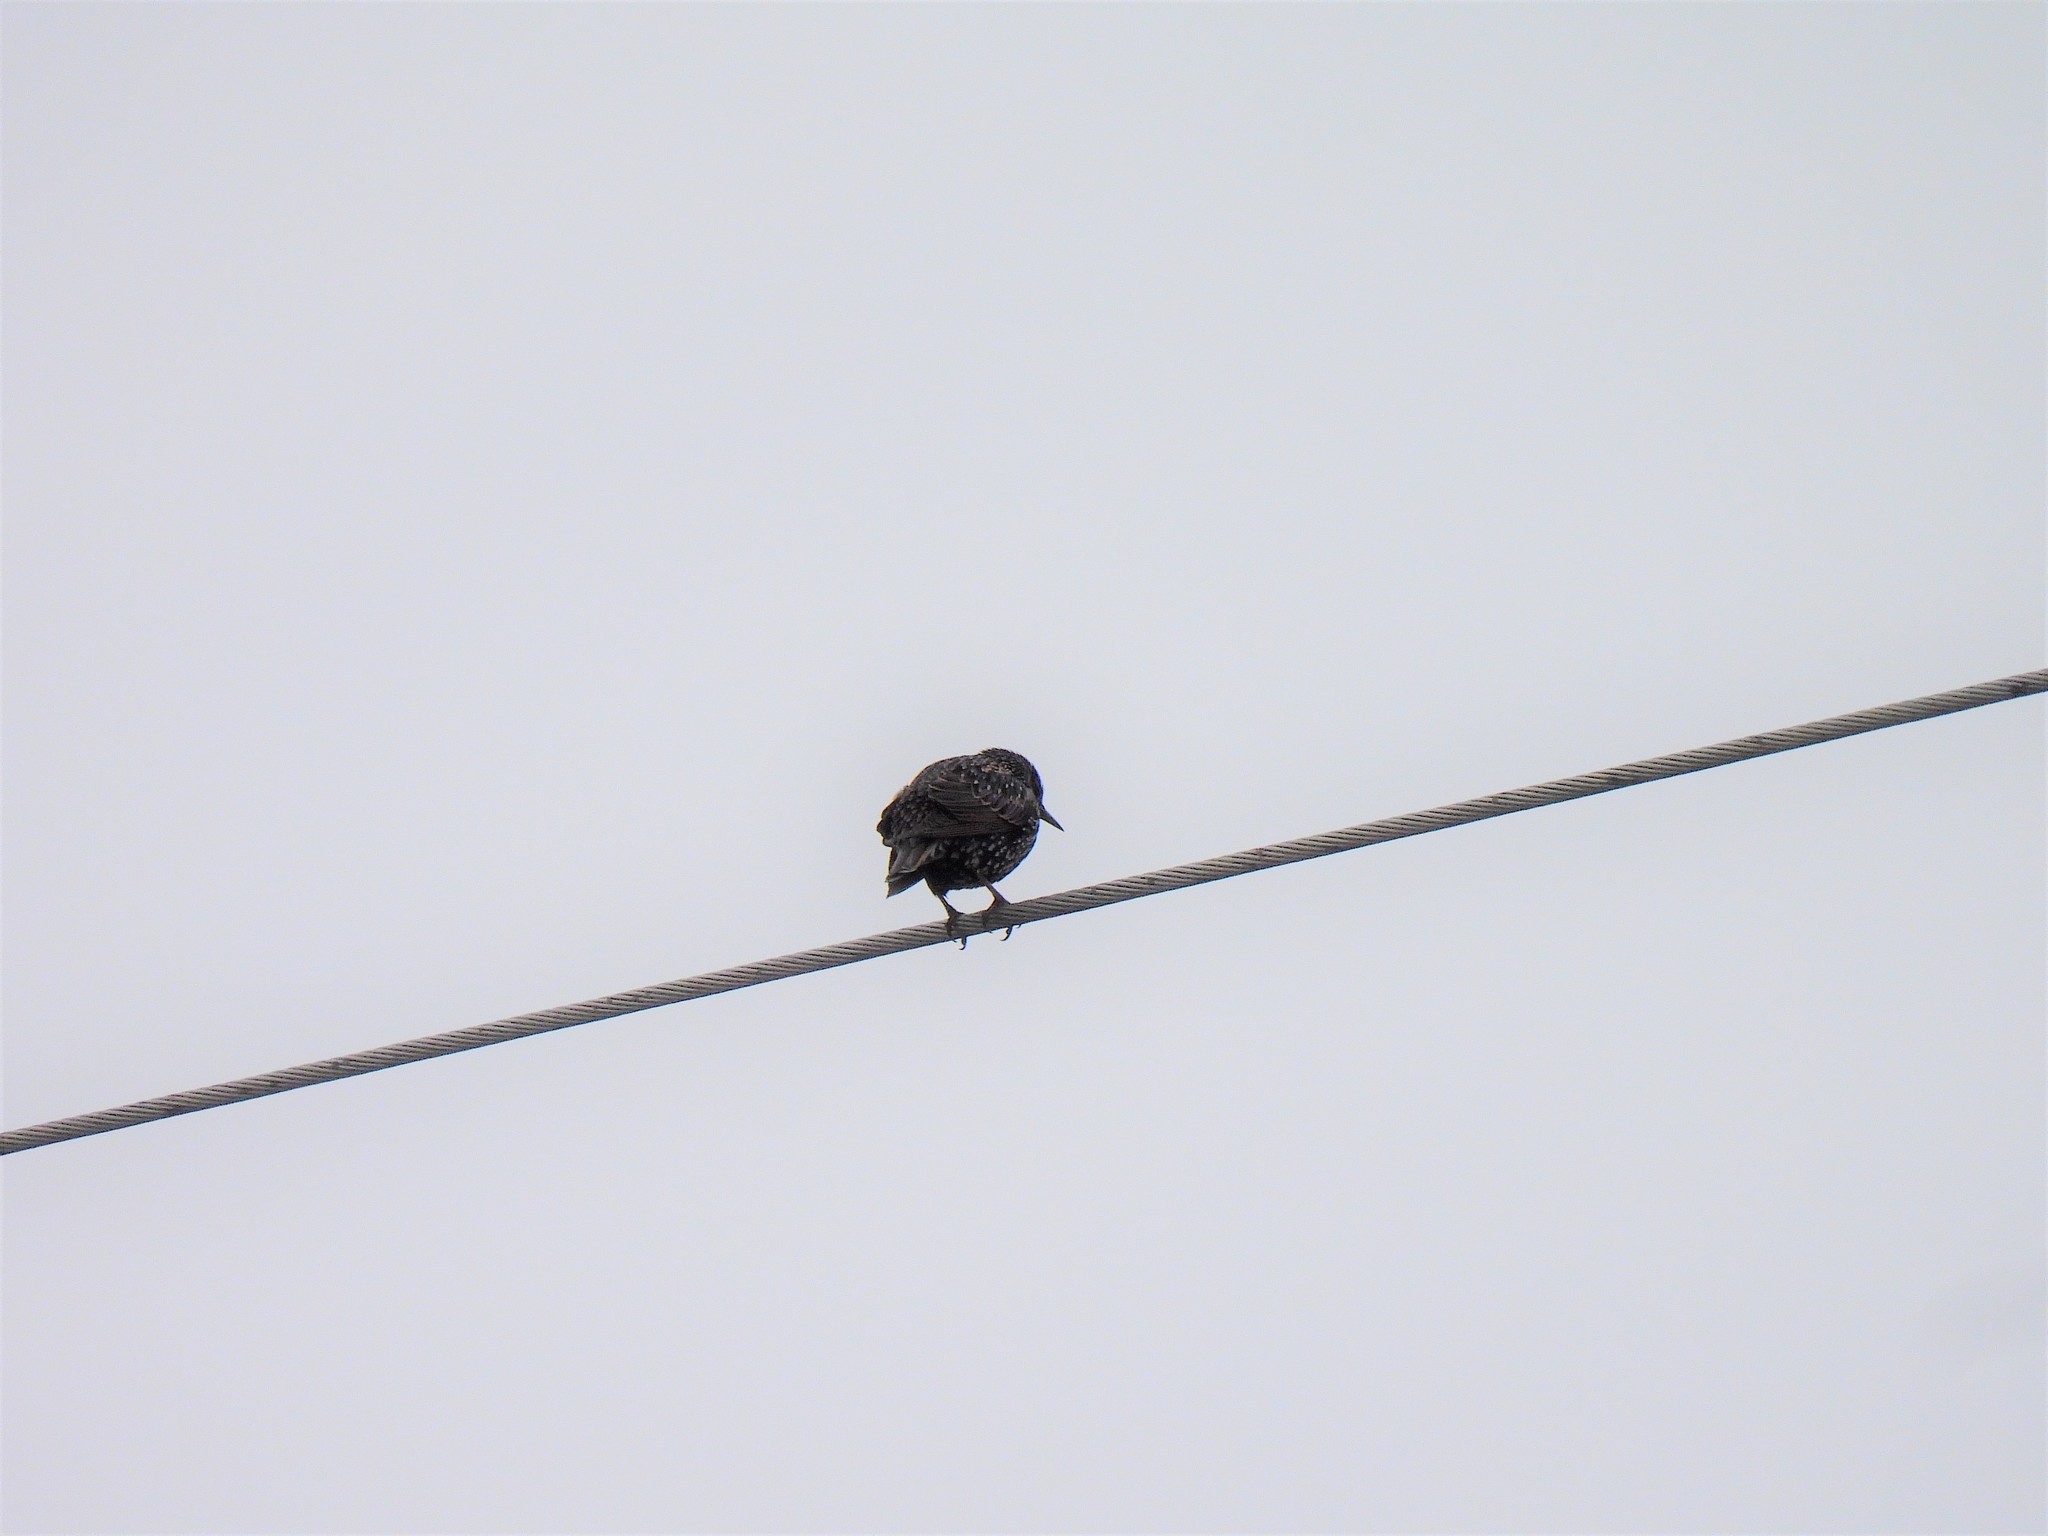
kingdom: Animalia
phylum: Chordata
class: Aves
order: Passeriformes
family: Sturnidae
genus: Sturnus
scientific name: Sturnus vulgaris
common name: Common starling
